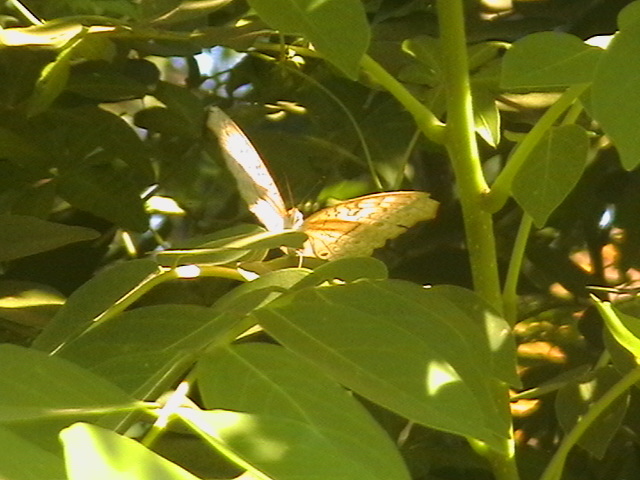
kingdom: Animalia
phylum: Arthropoda
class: Insecta
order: Lepidoptera
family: Nymphalidae
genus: Junonia
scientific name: Junonia atlites
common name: Grey pansy
